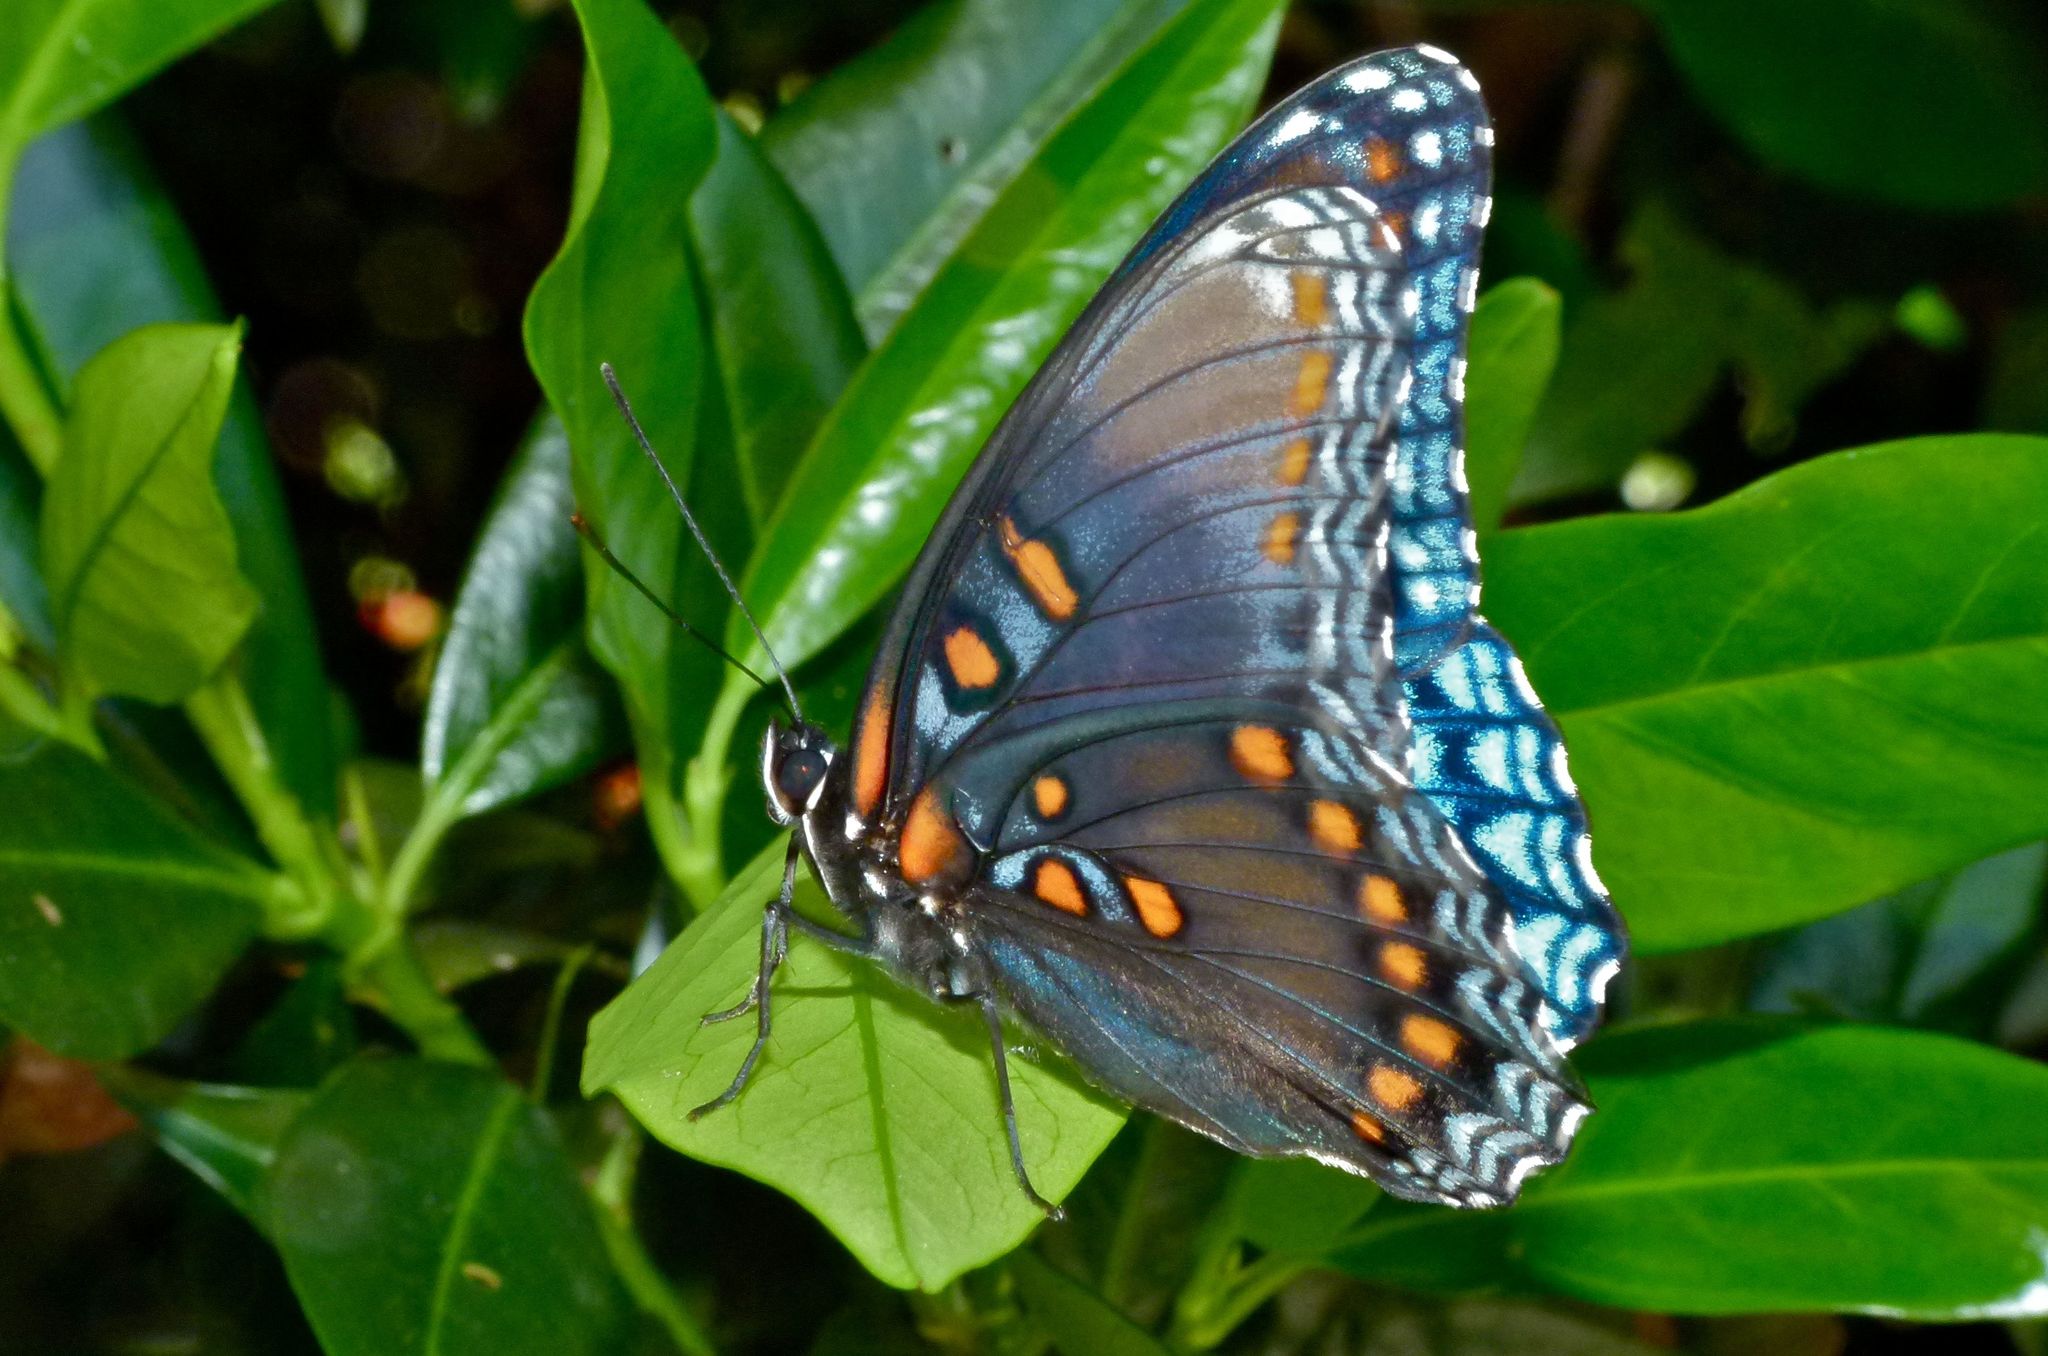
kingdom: Animalia
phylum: Arthropoda
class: Insecta
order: Lepidoptera
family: Nymphalidae
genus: Limenitis
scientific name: Limenitis astyanax
